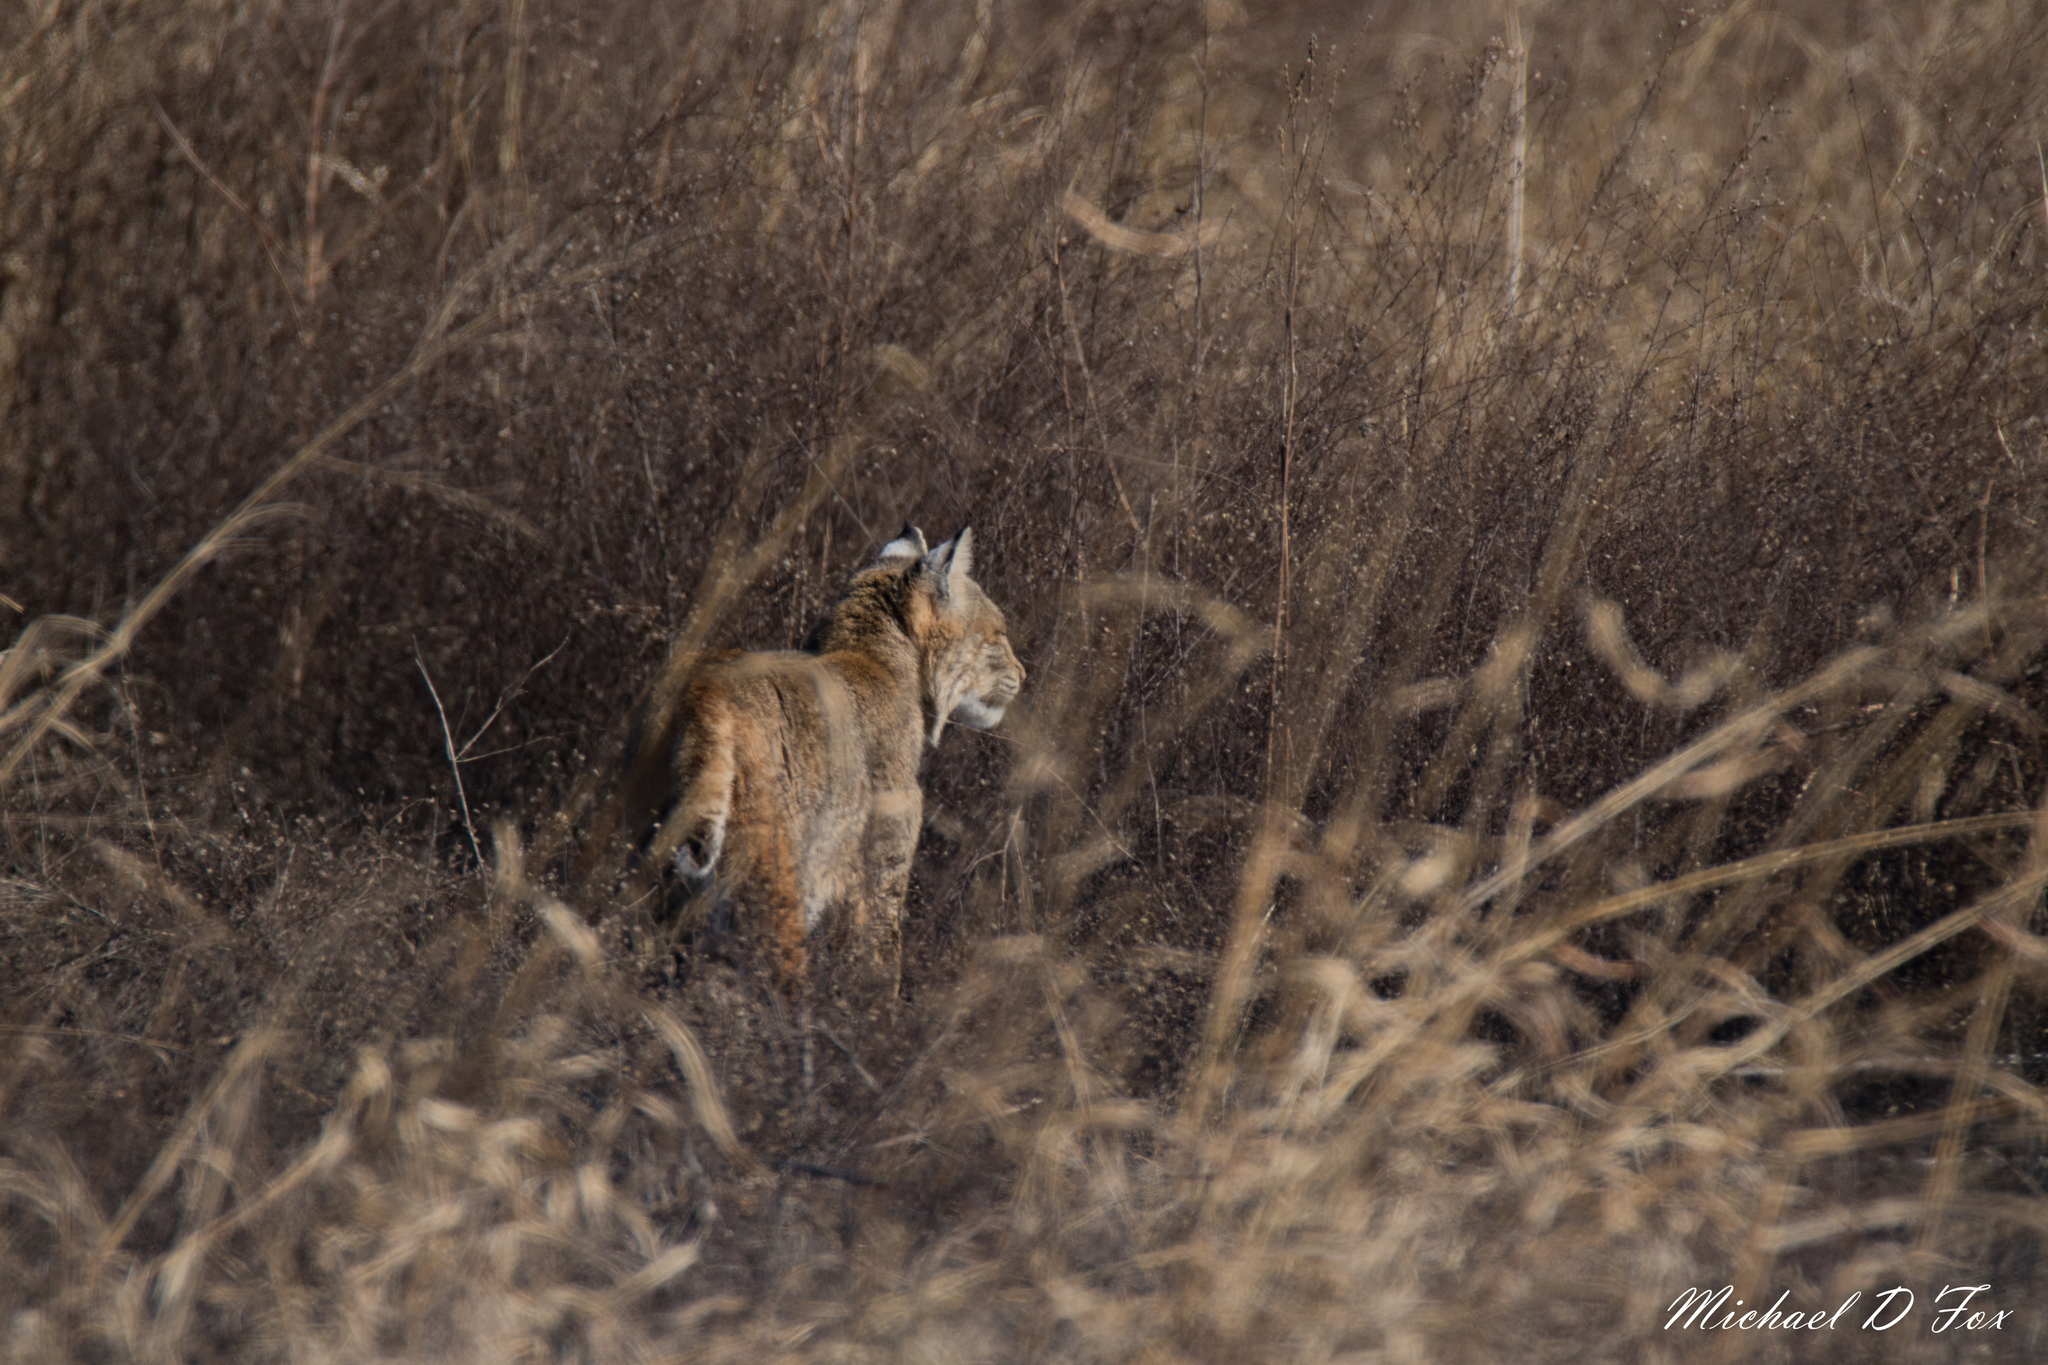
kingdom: Animalia
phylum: Chordata
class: Mammalia
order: Carnivora
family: Felidae
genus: Lynx
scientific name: Lynx rufus
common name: Bobcat
